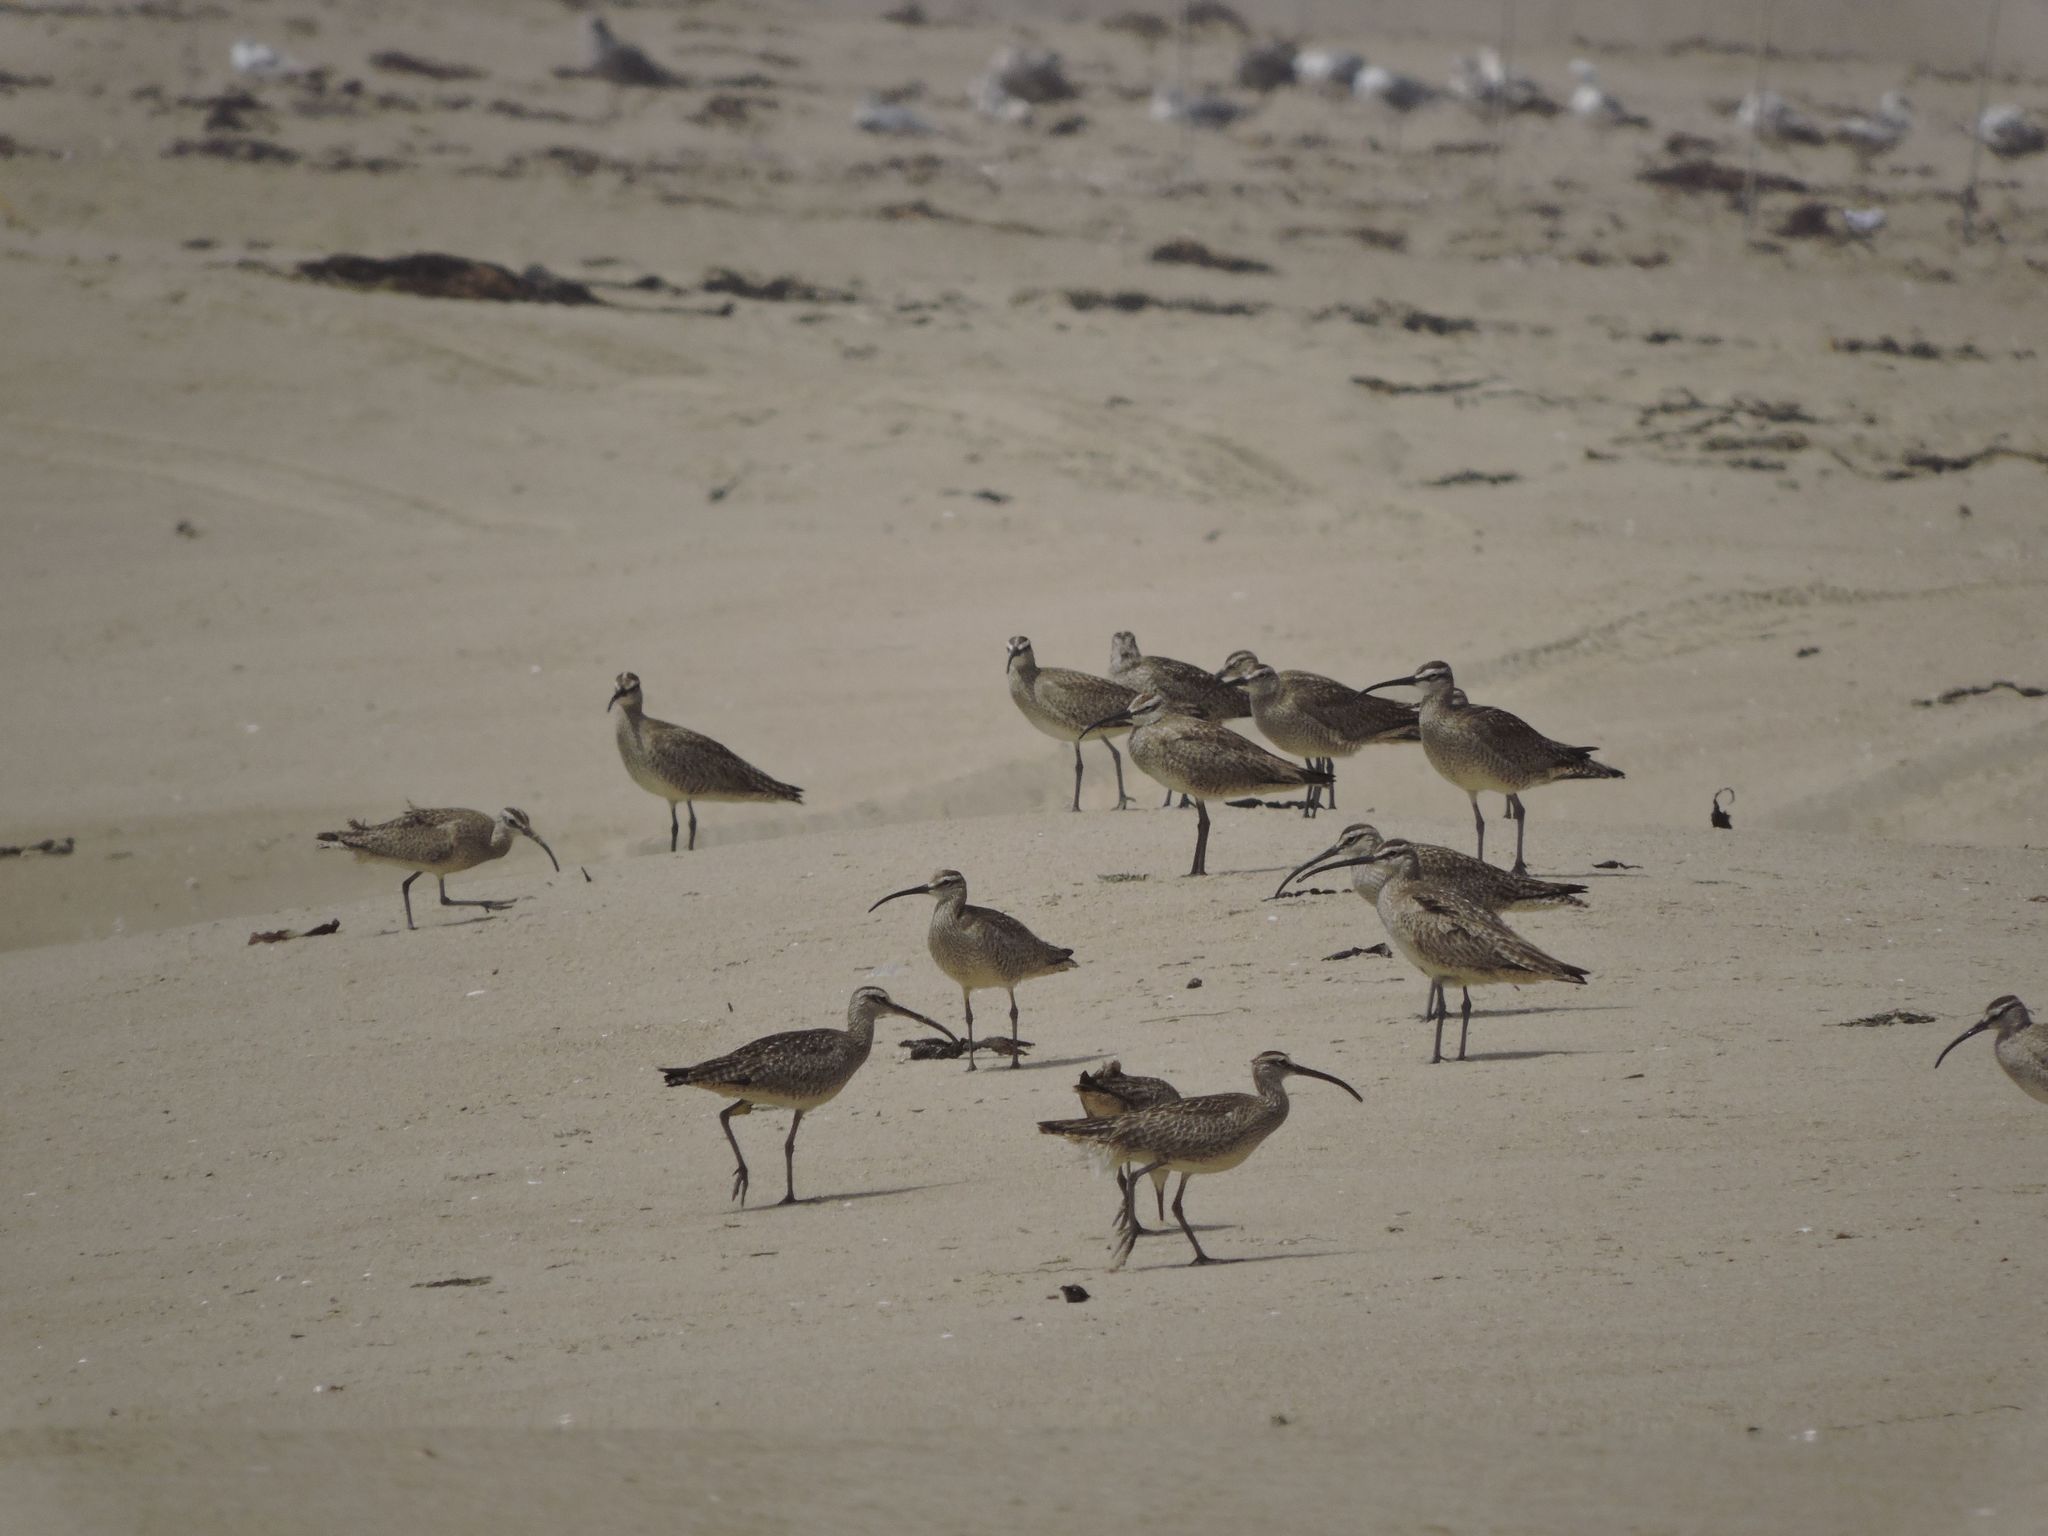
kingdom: Animalia
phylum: Chordata
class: Aves
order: Charadriiformes
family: Scolopacidae
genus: Numenius
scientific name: Numenius phaeopus
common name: Whimbrel
